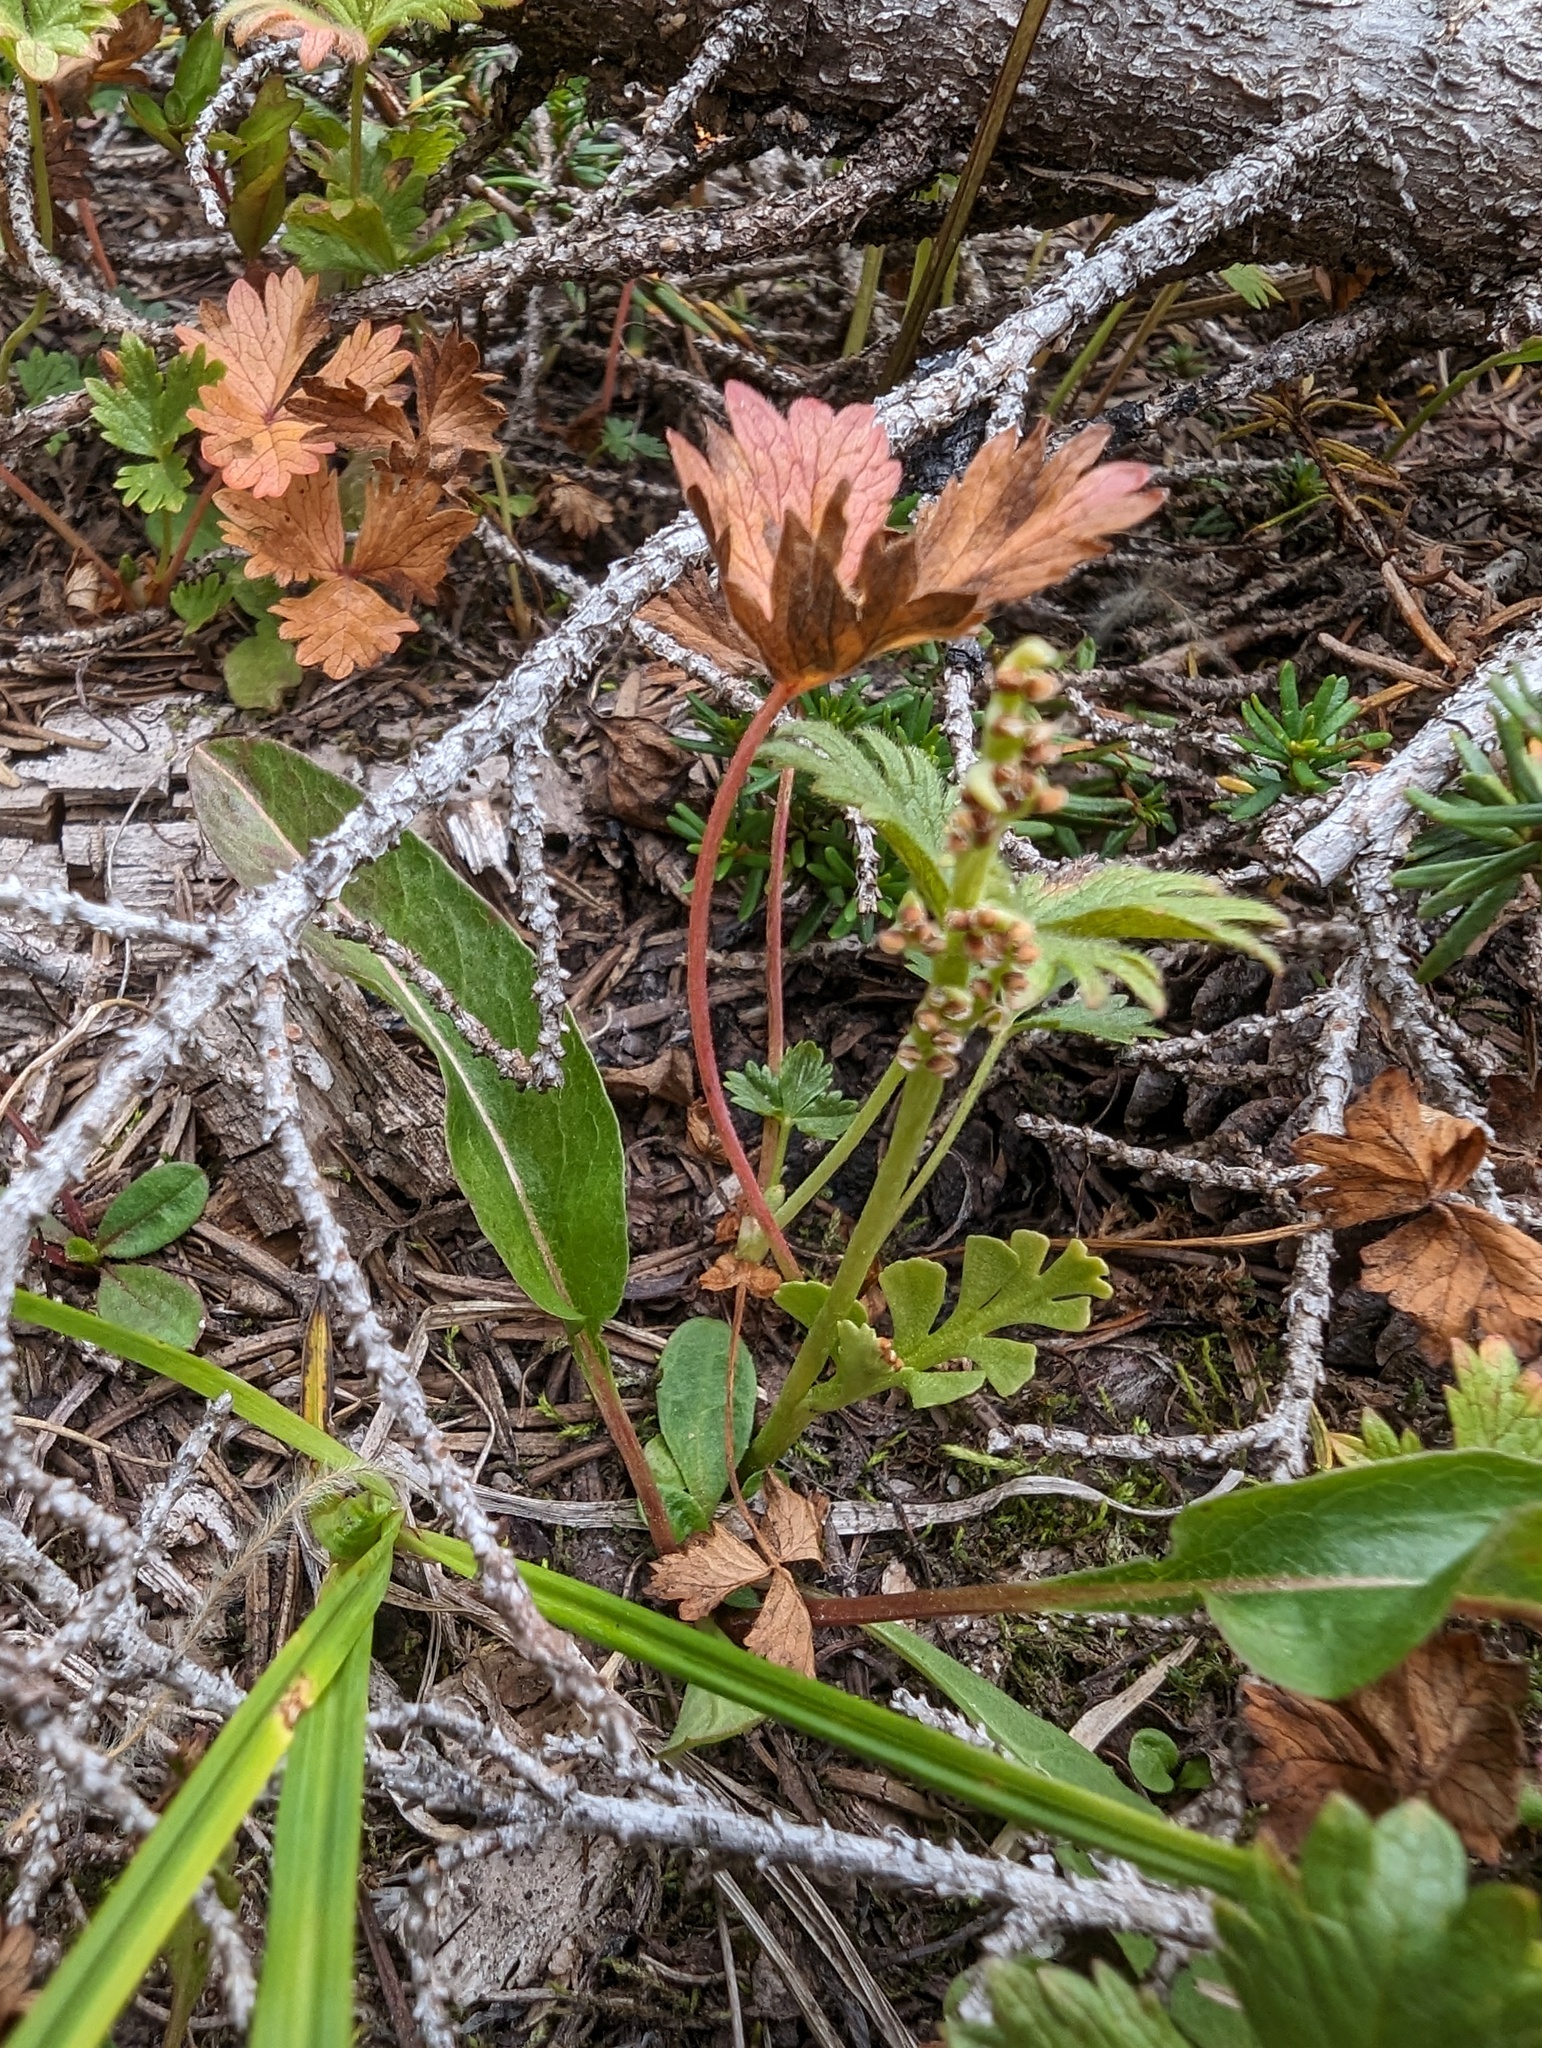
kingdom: Plantae
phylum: Tracheophyta
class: Polypodiopsida
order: Ophioglossales
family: Ophioglossaceae
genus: Botrychium
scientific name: Botrychium minganense
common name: Mingan grapefern
